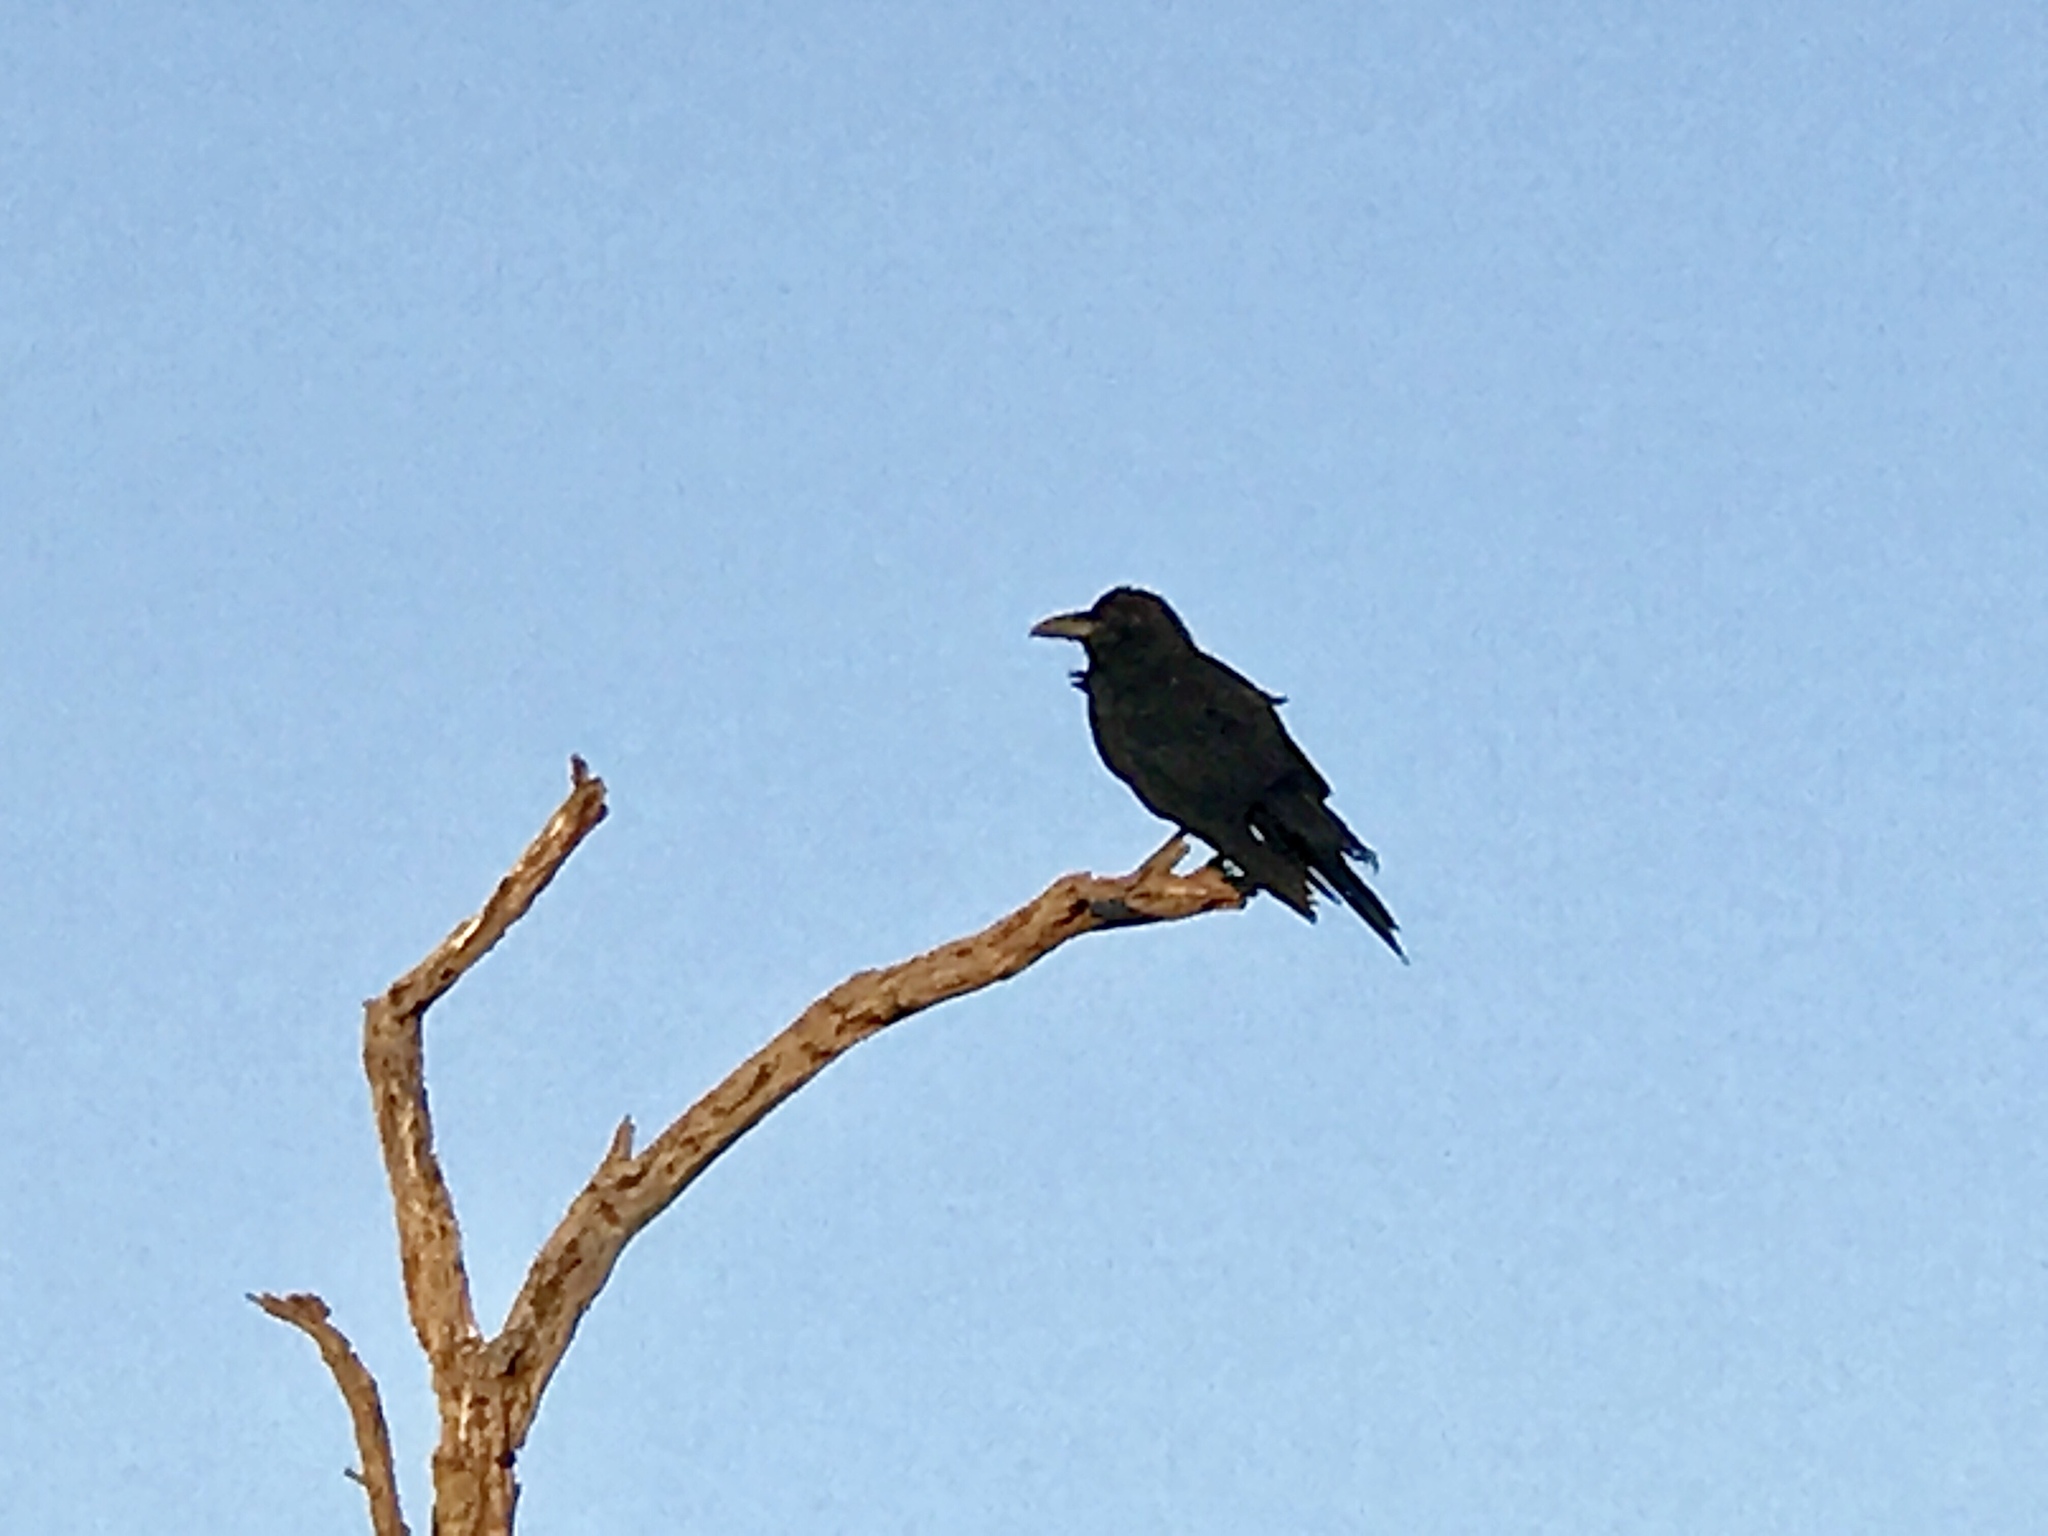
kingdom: Animalia
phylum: Chordata
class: Aves
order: Passeriformes
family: Corvidae
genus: Corvus
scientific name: Corvus
